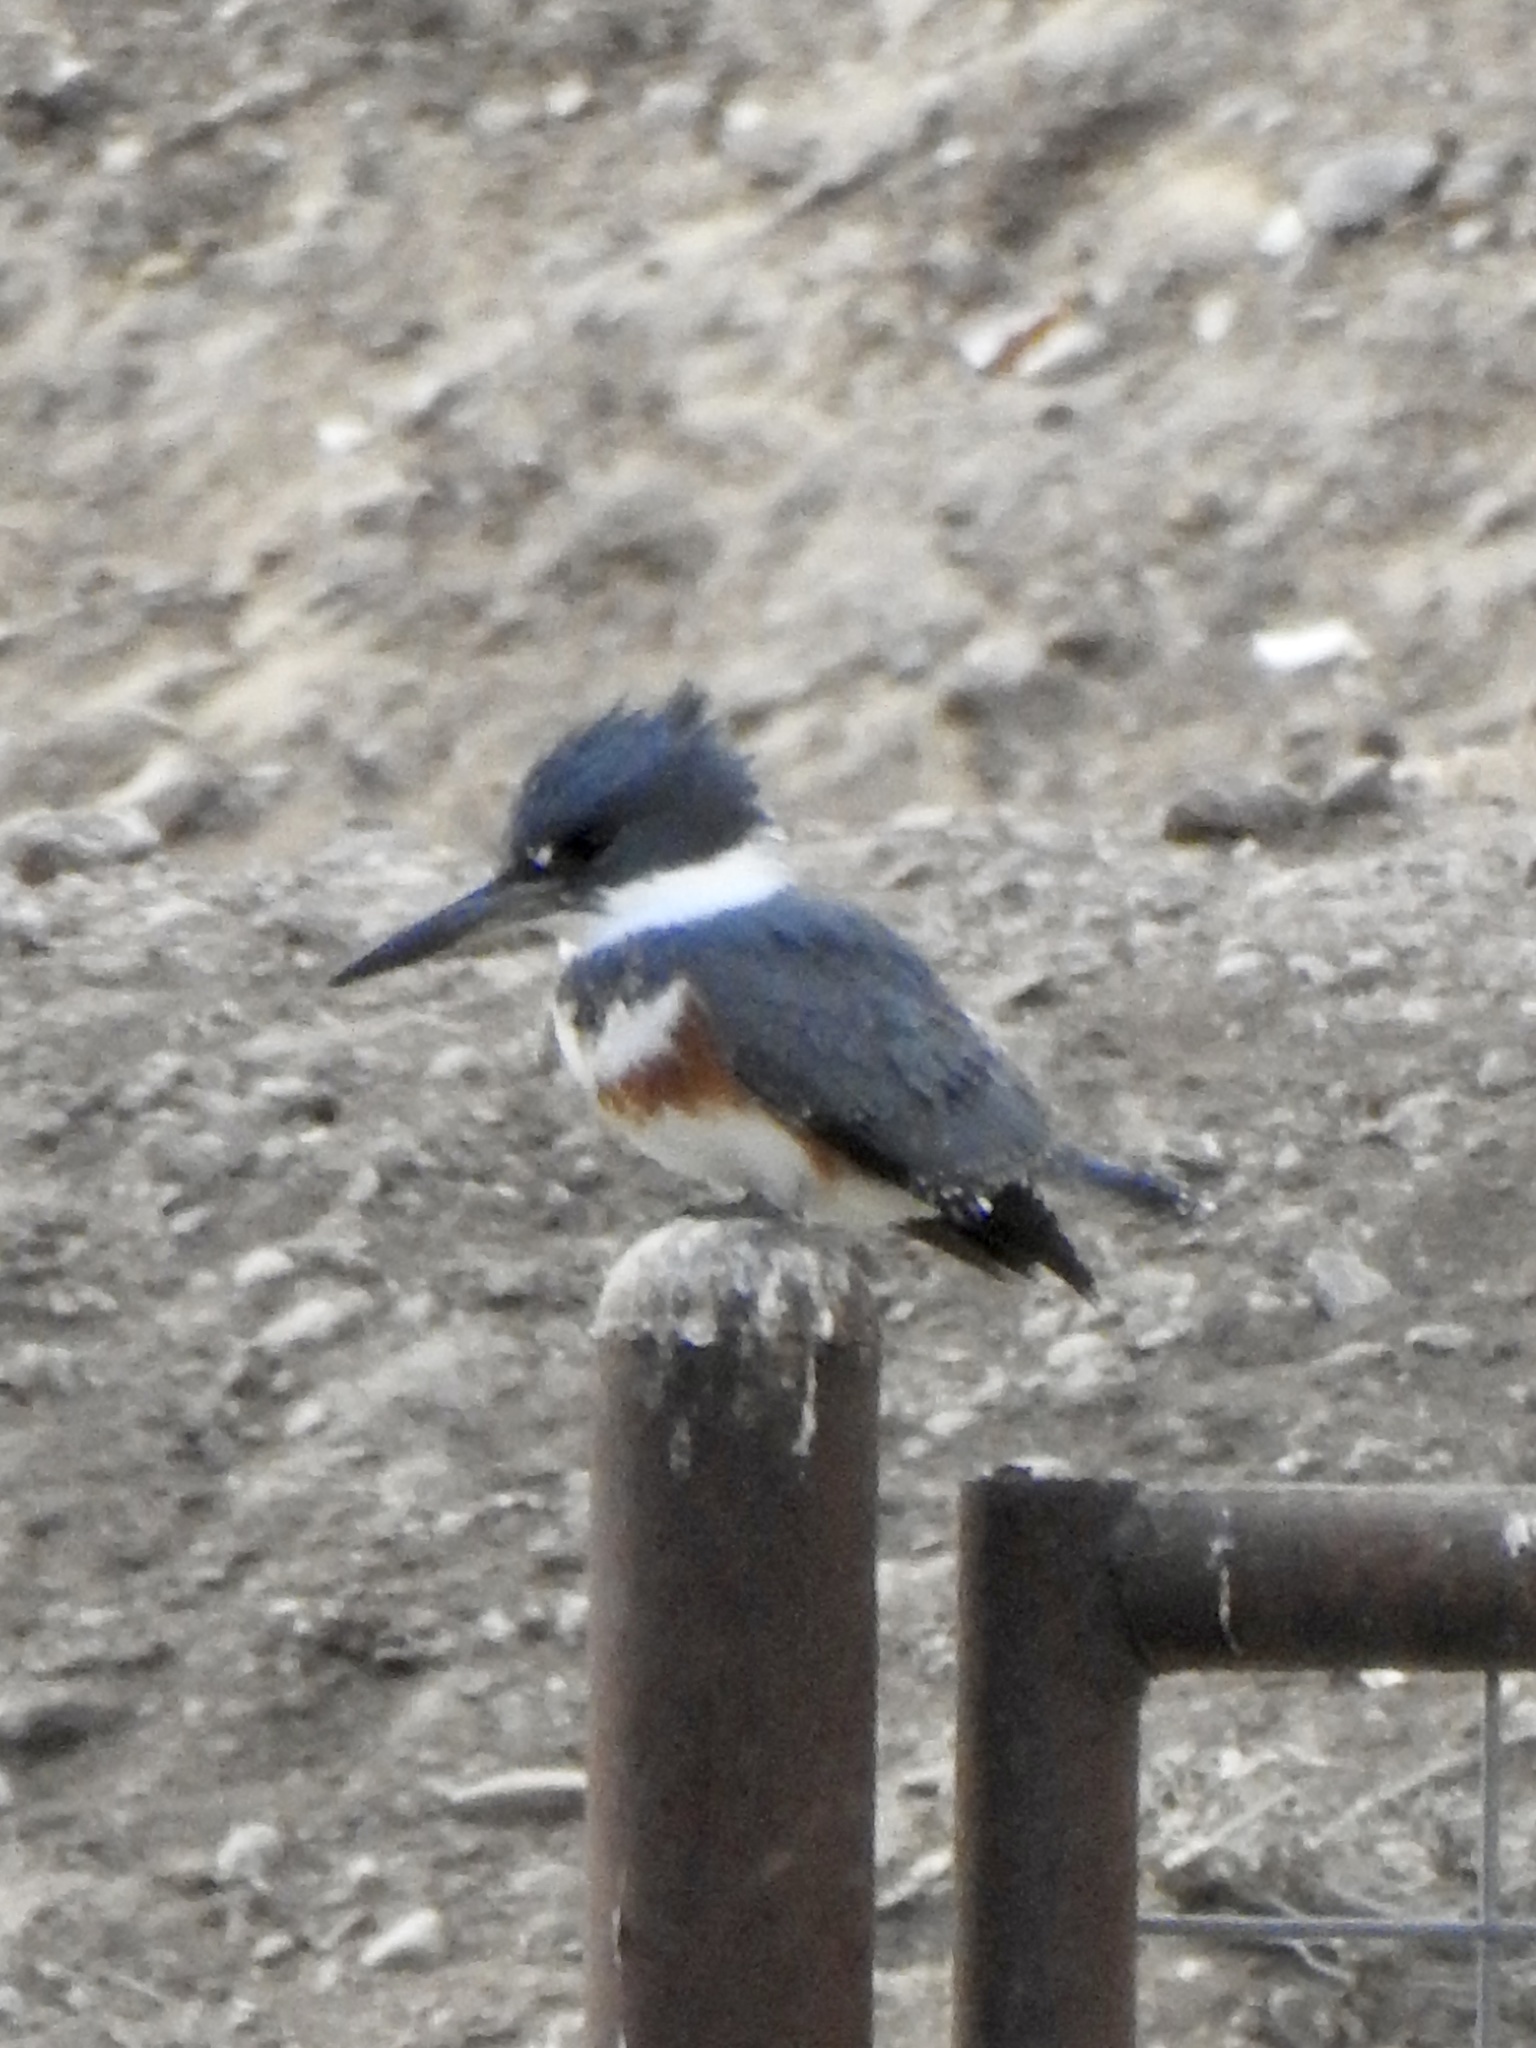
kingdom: Animalia
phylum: Chordata
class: Aves
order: Coraciiformes
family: Alcedinidae
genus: Megaceryle
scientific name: Megaceryle alcyon
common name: Belted kingfisher
